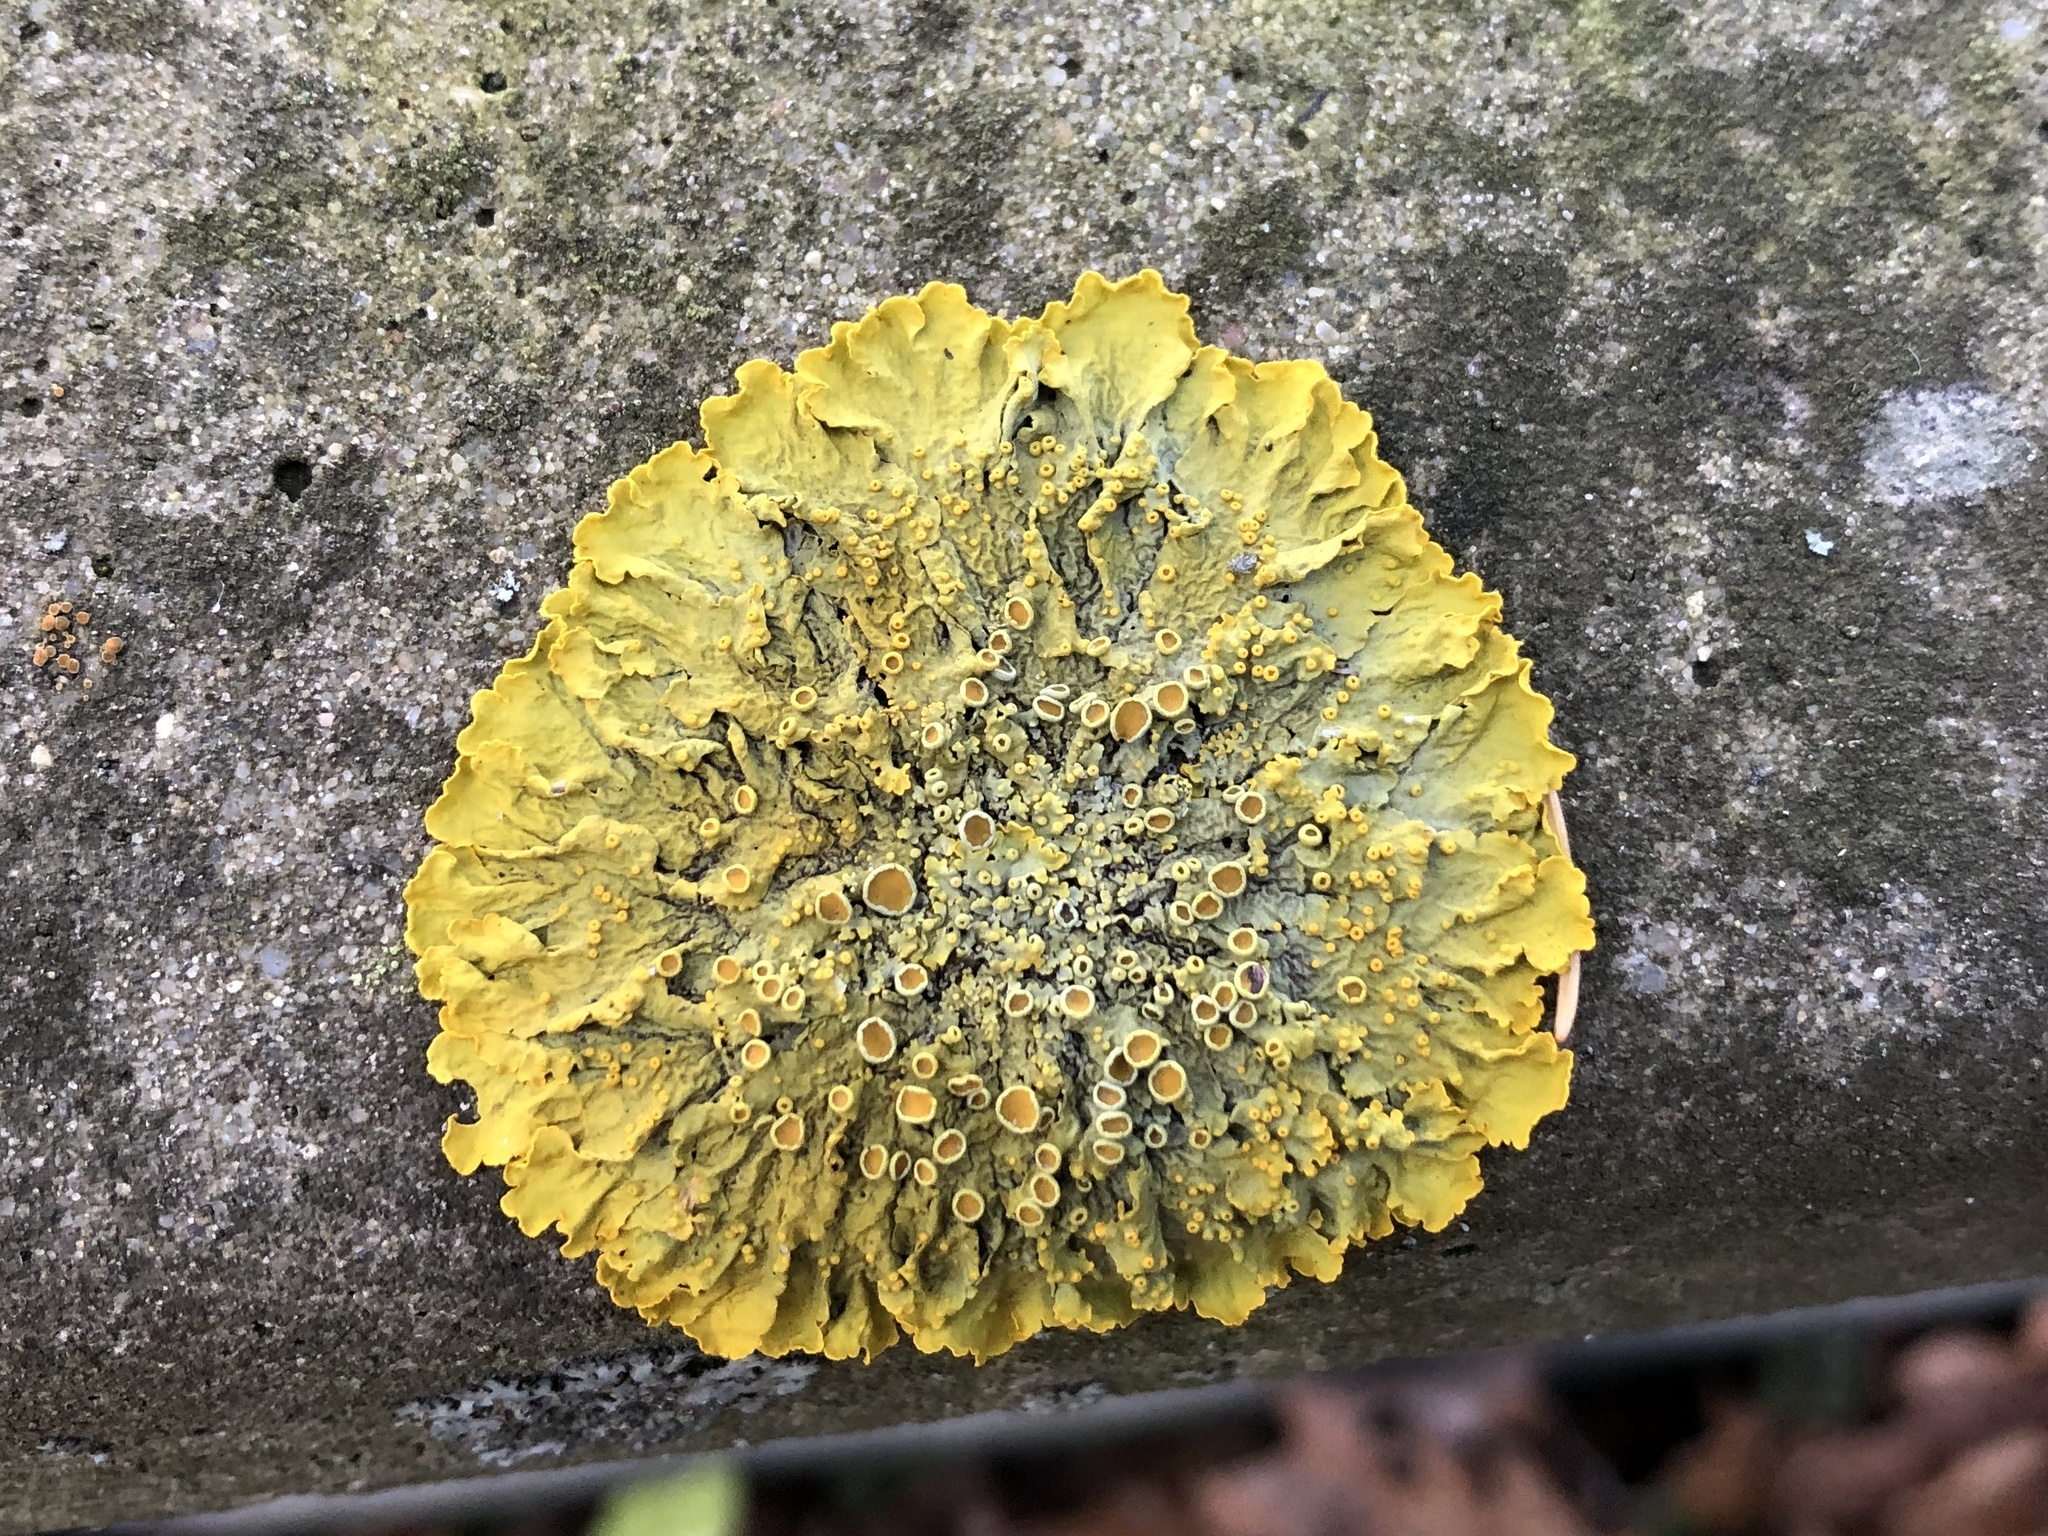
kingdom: Fungi
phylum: Ascomycota
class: Lecanoromycetes
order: Teloschistales
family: Teloschistaceae
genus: Xanthoria
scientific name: Xanthoria parietina
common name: Common orange lichen
